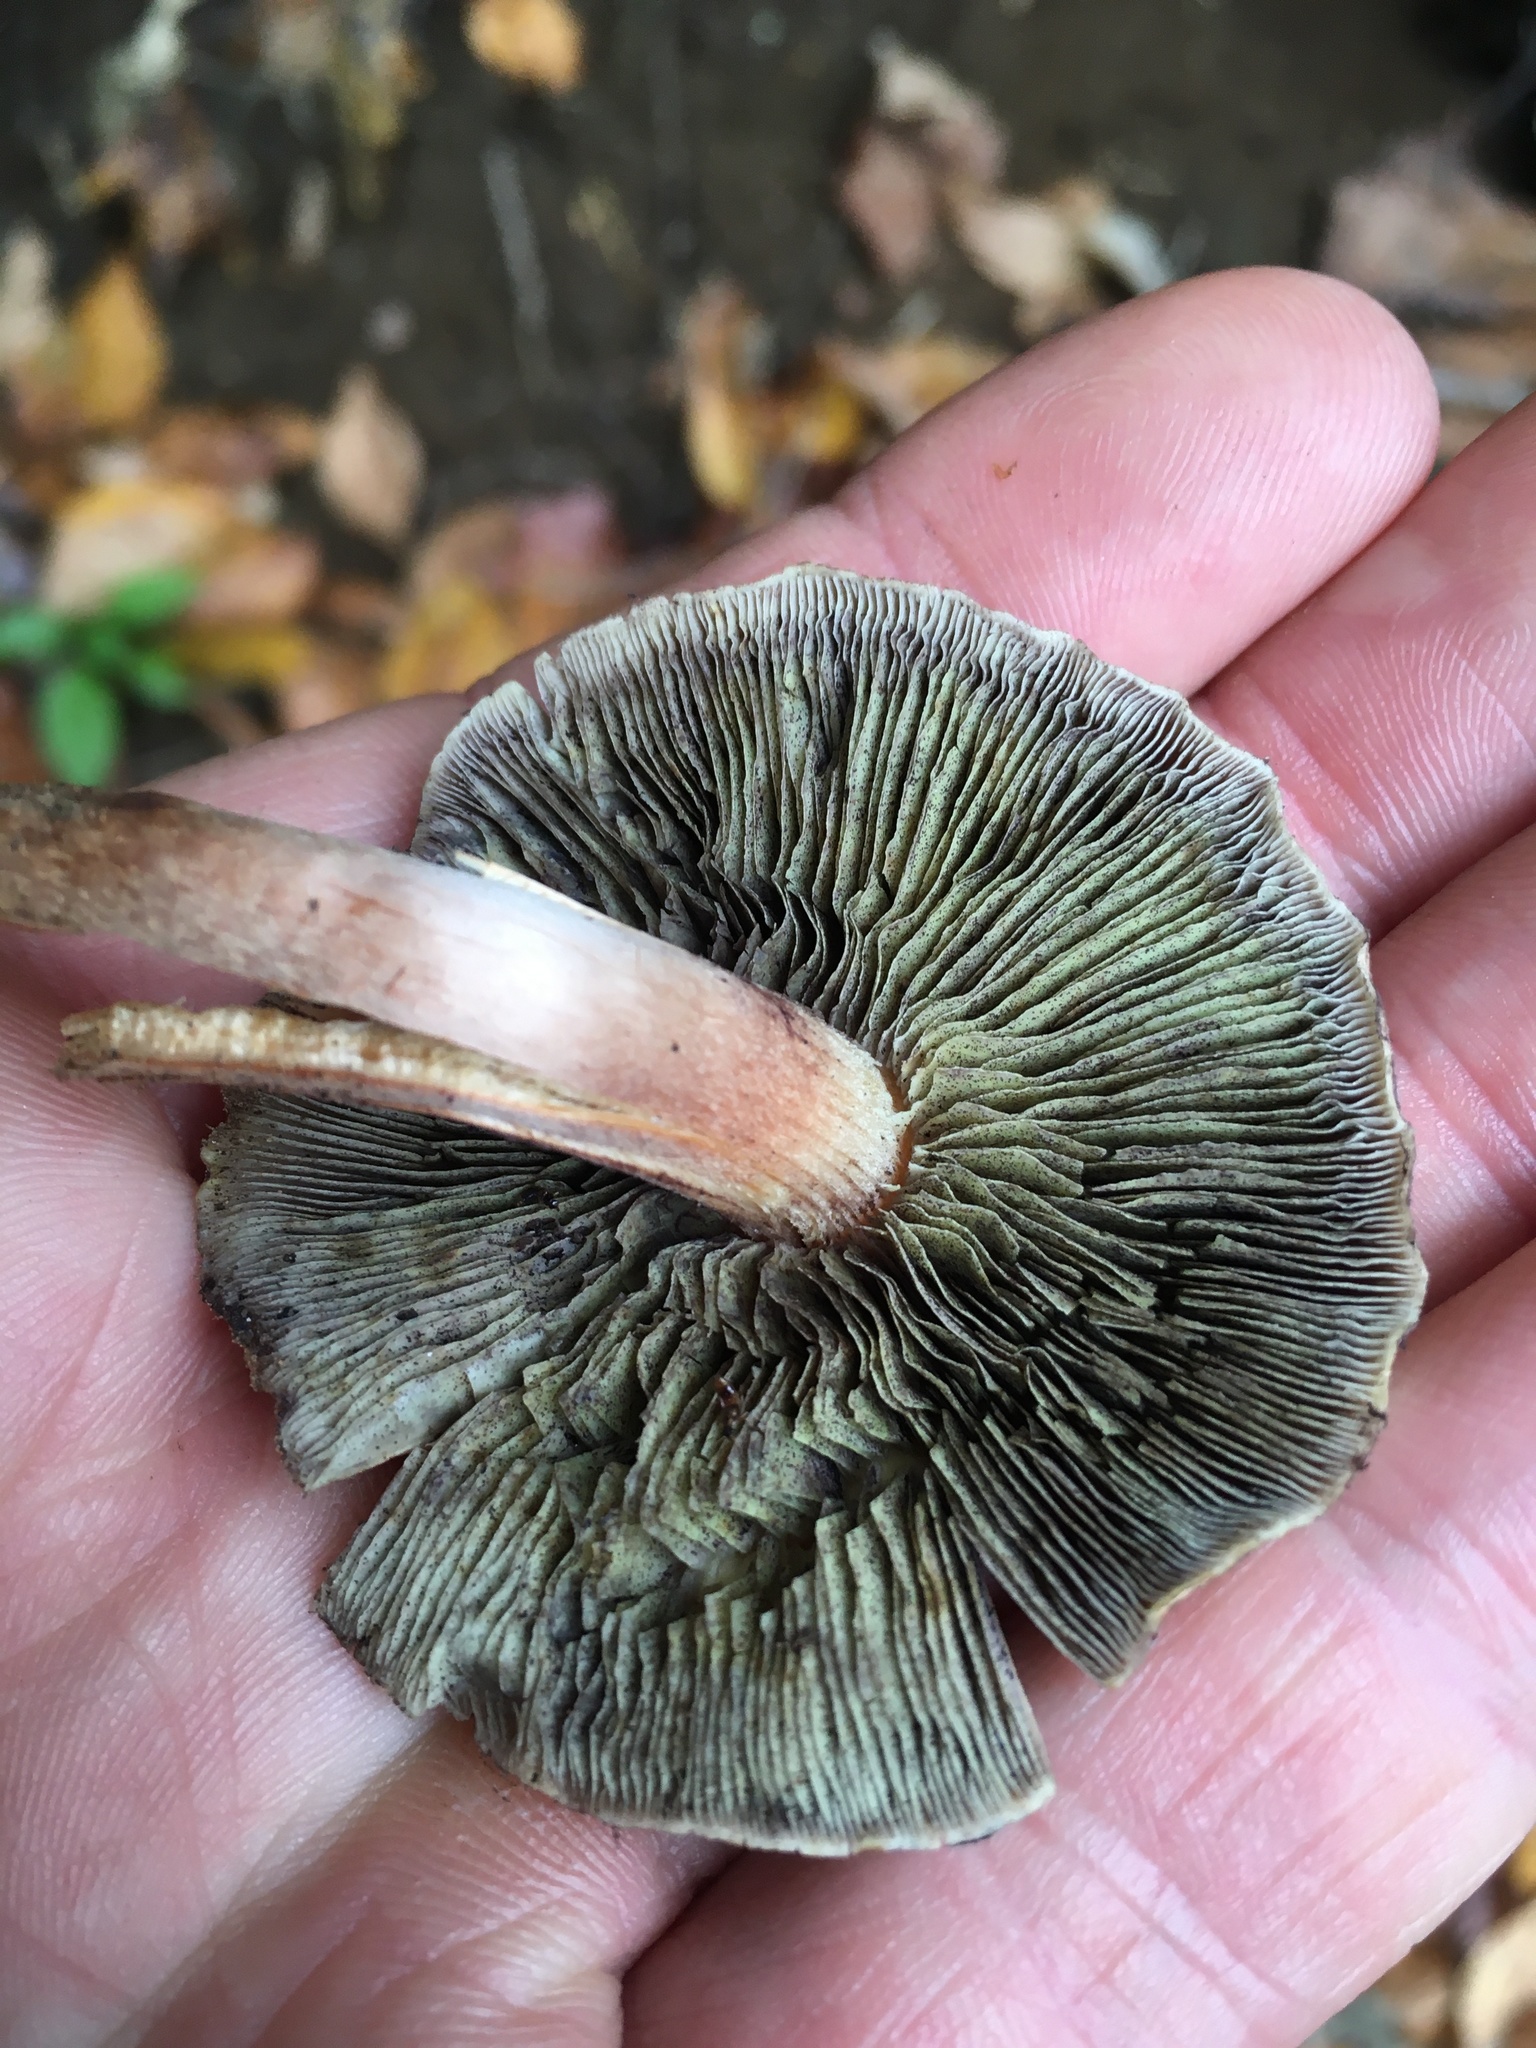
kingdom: Fungi
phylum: Basidiomycota
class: Agaricomycetes
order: Agaricales
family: Strophariaceae
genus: Hypholoma
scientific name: Hypholoma lateritium
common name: Brick caps
